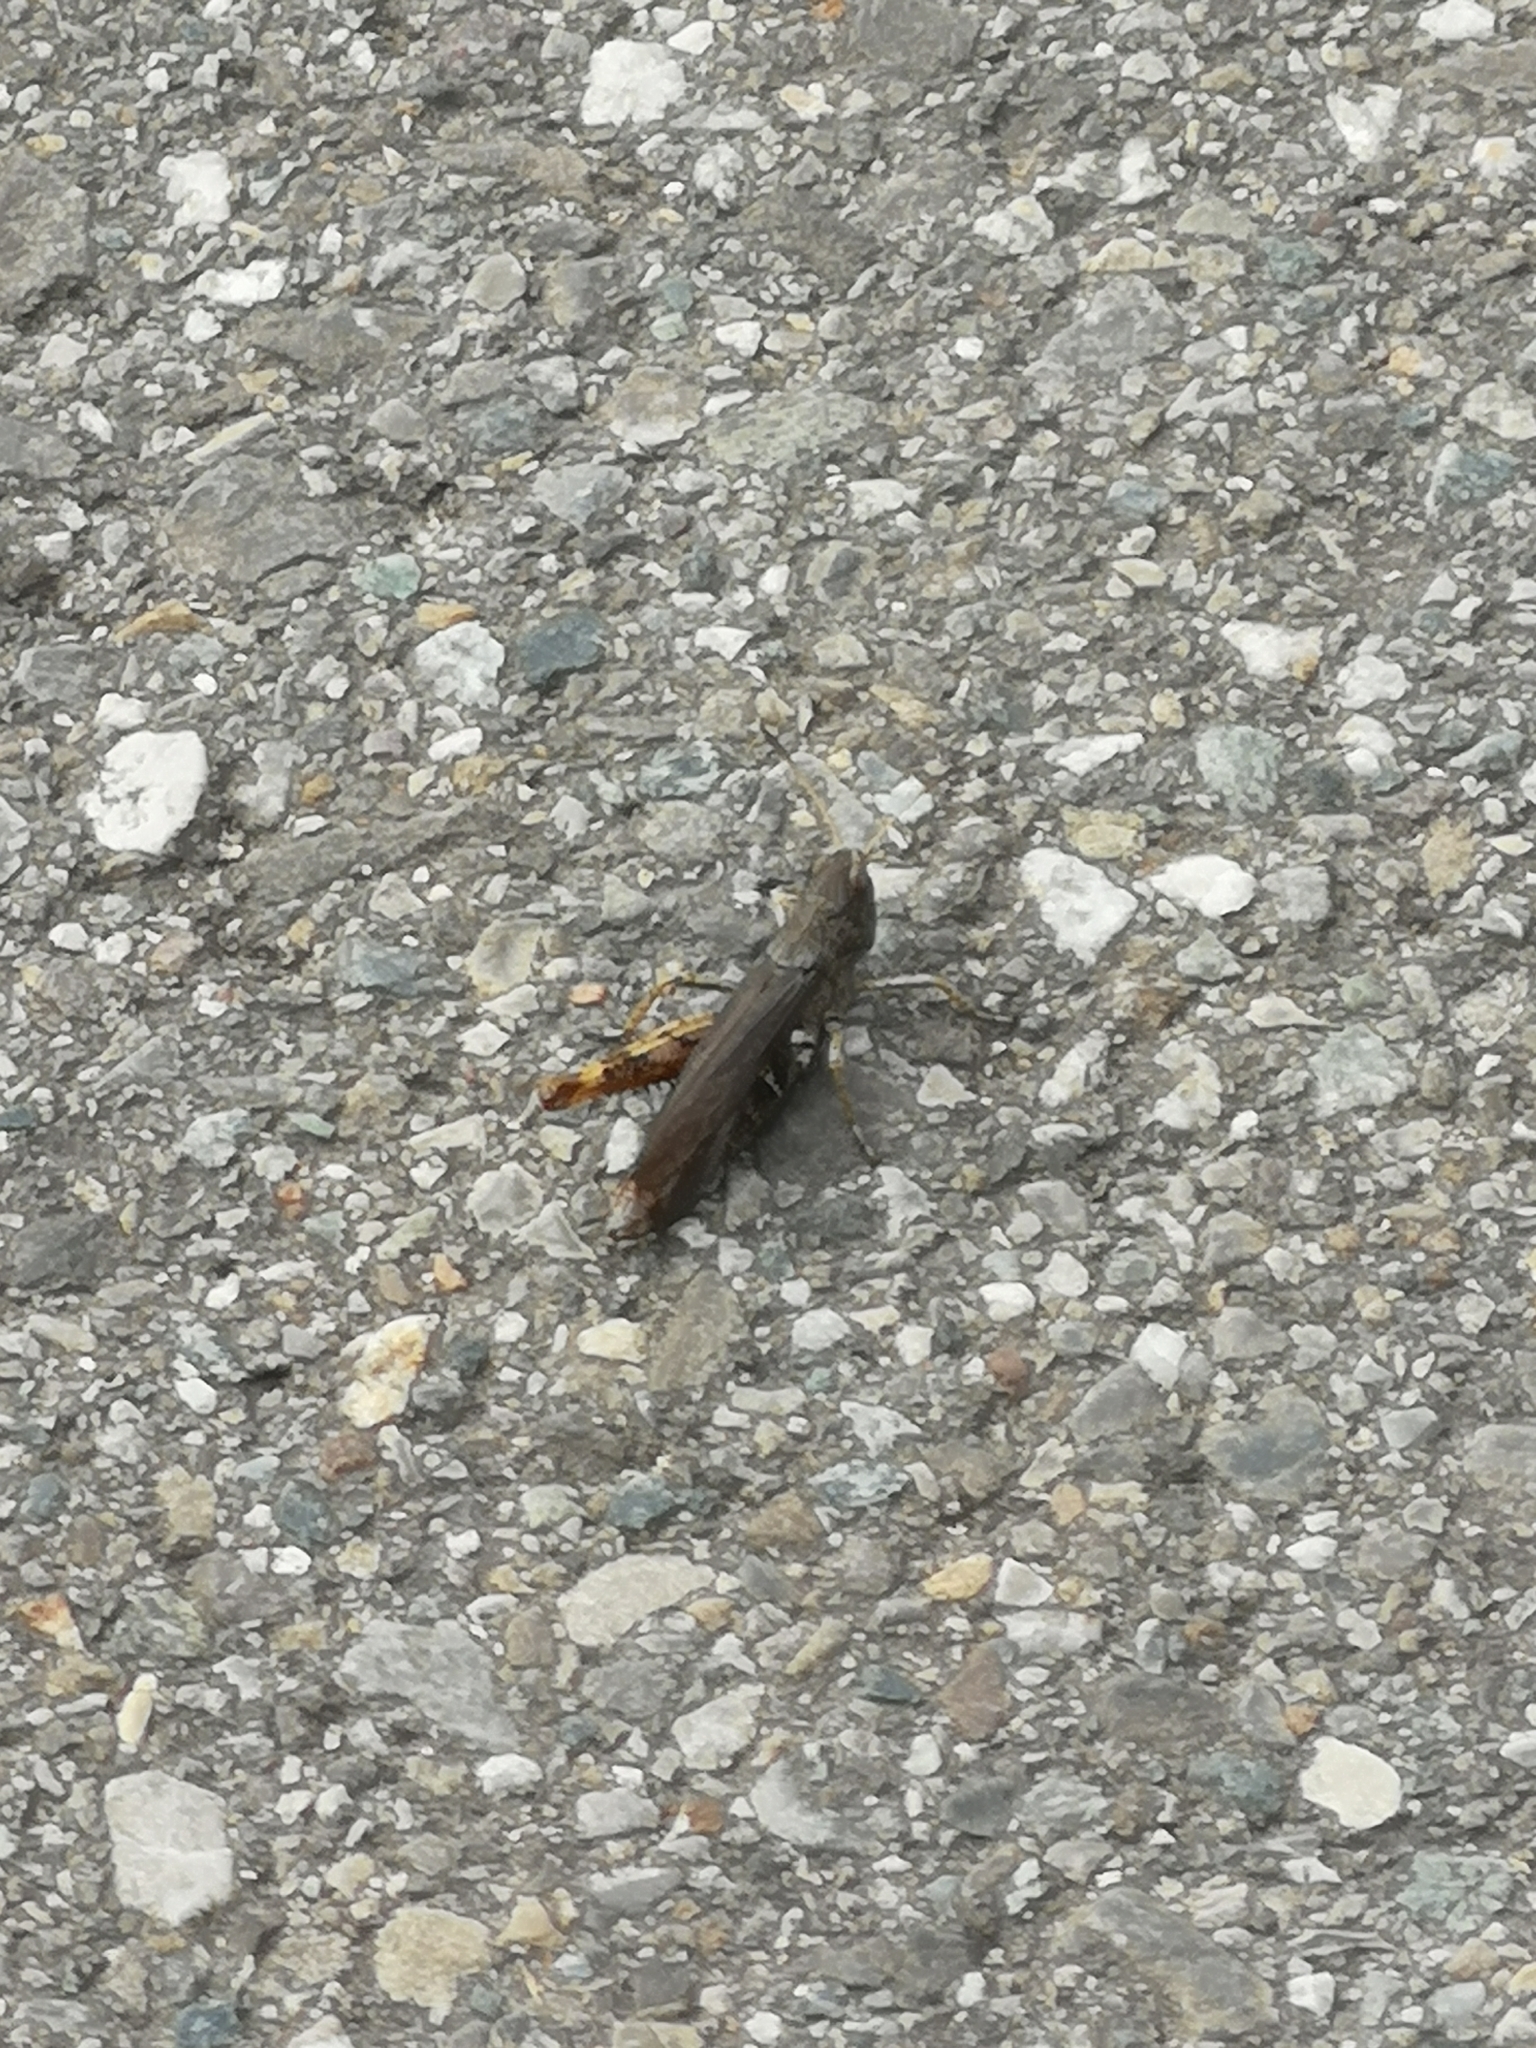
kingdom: Animalia
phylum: Arthropoda
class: Insecta
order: Orthoptera
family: Acrididae
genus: Gomphocerippus
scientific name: Gomphocerippus rufus
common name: Rufous grasshopper
